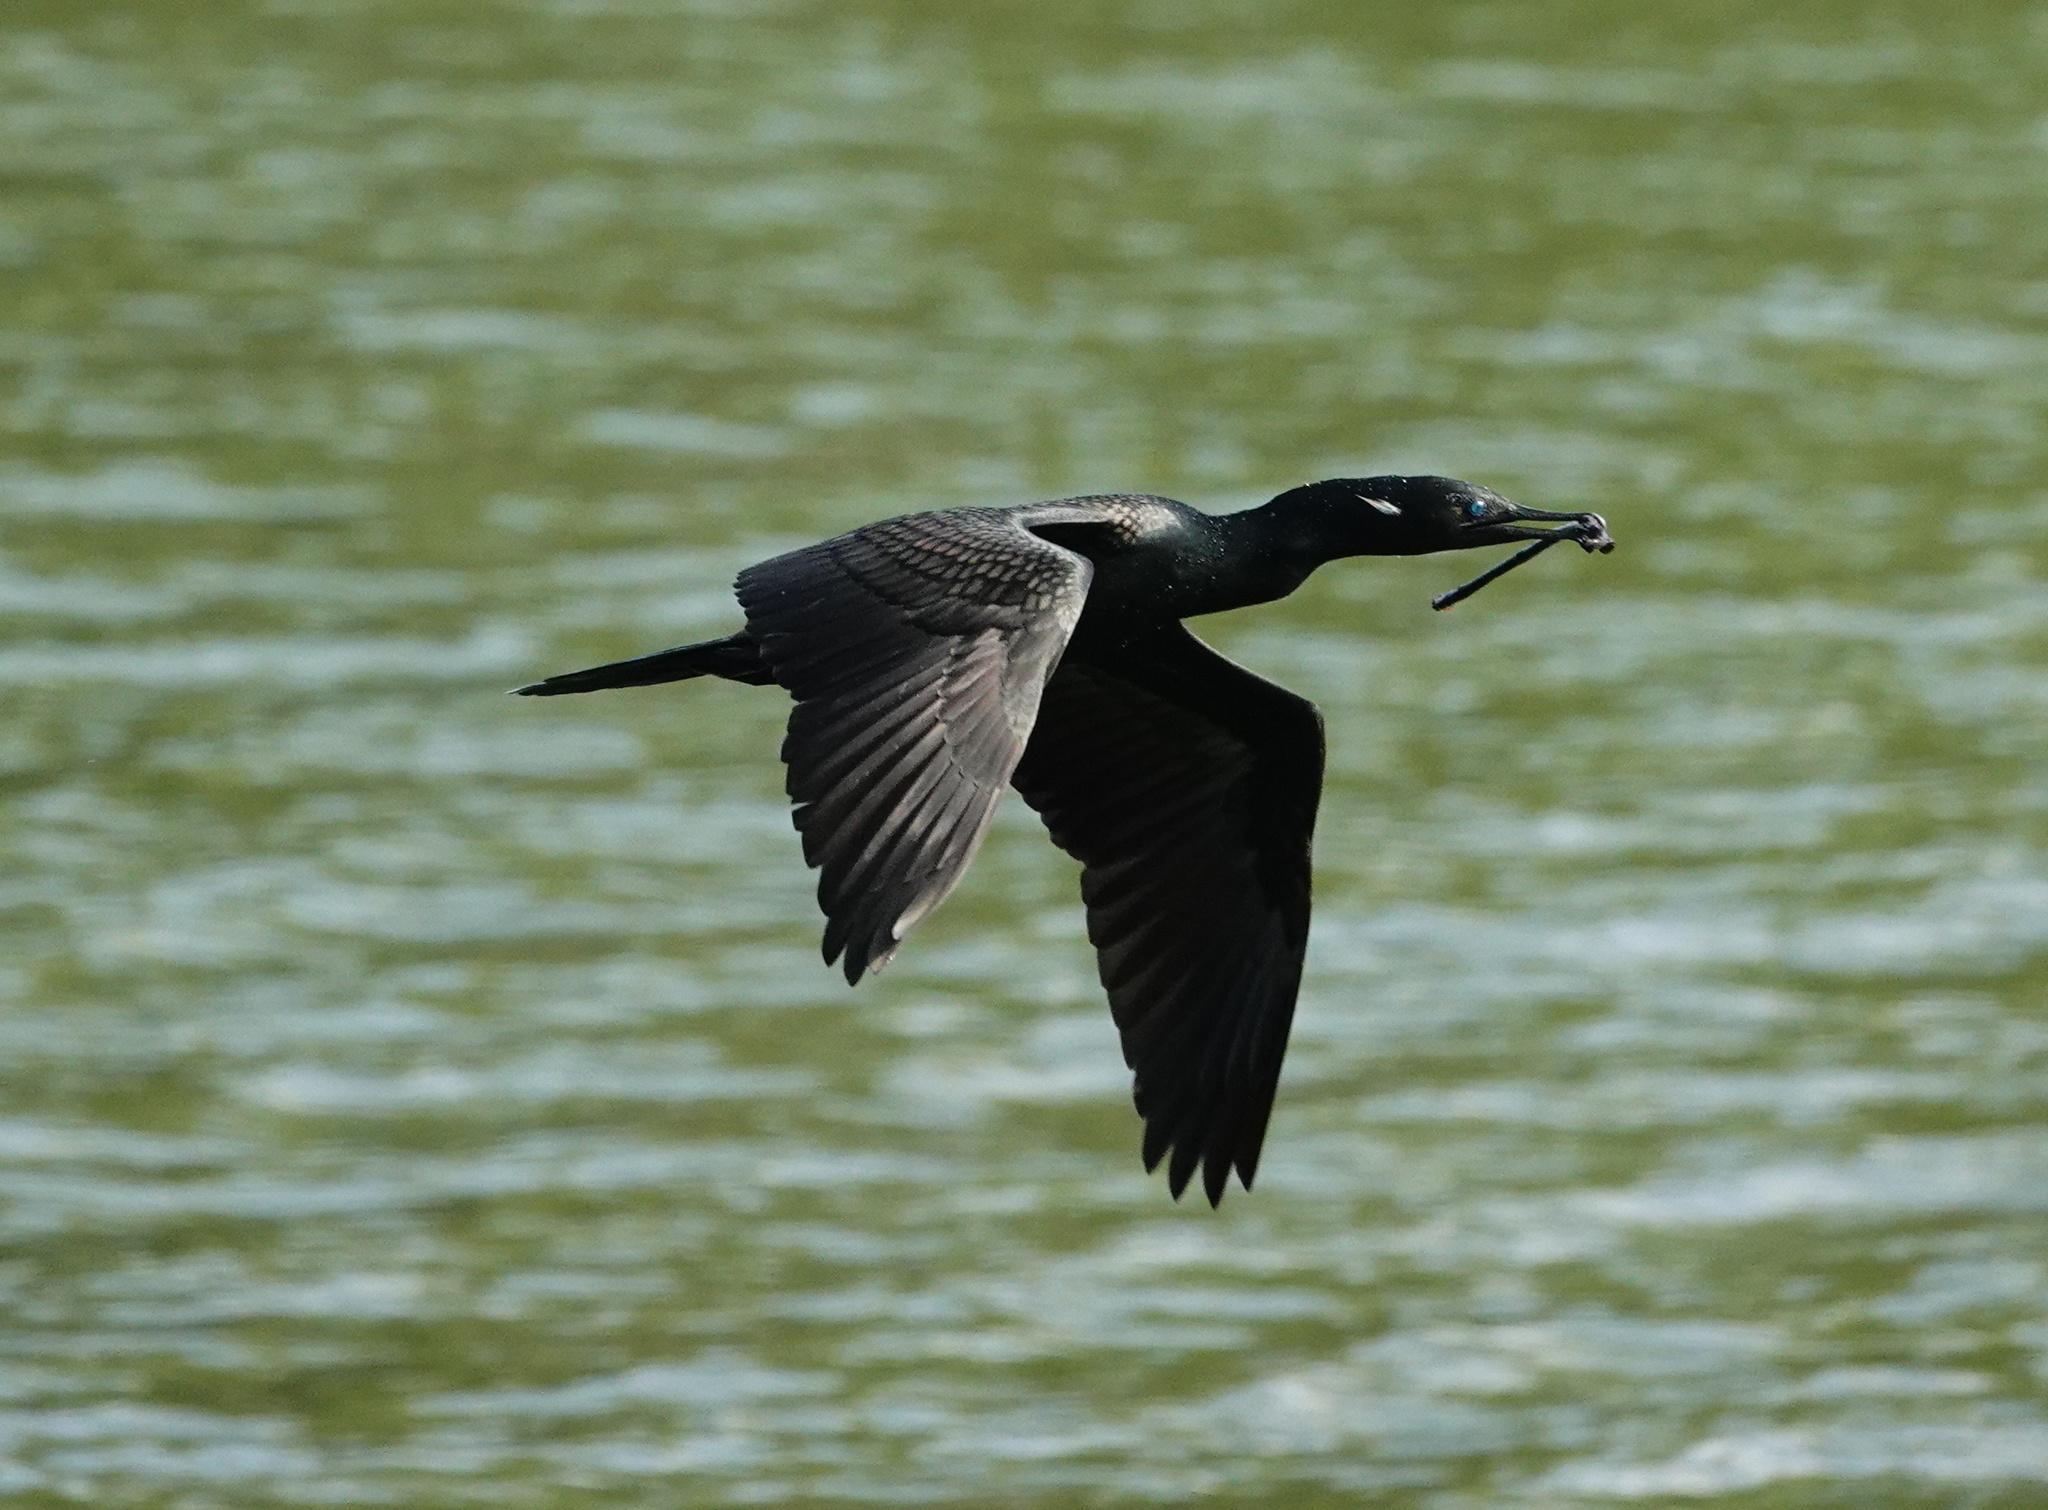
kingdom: Animalia
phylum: Chordata
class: Aves
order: Suliformes
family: Phalacrocoracidae
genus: Phalacrocorax
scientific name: Phalacrocorax fuscicollis
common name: Indian cormorant
